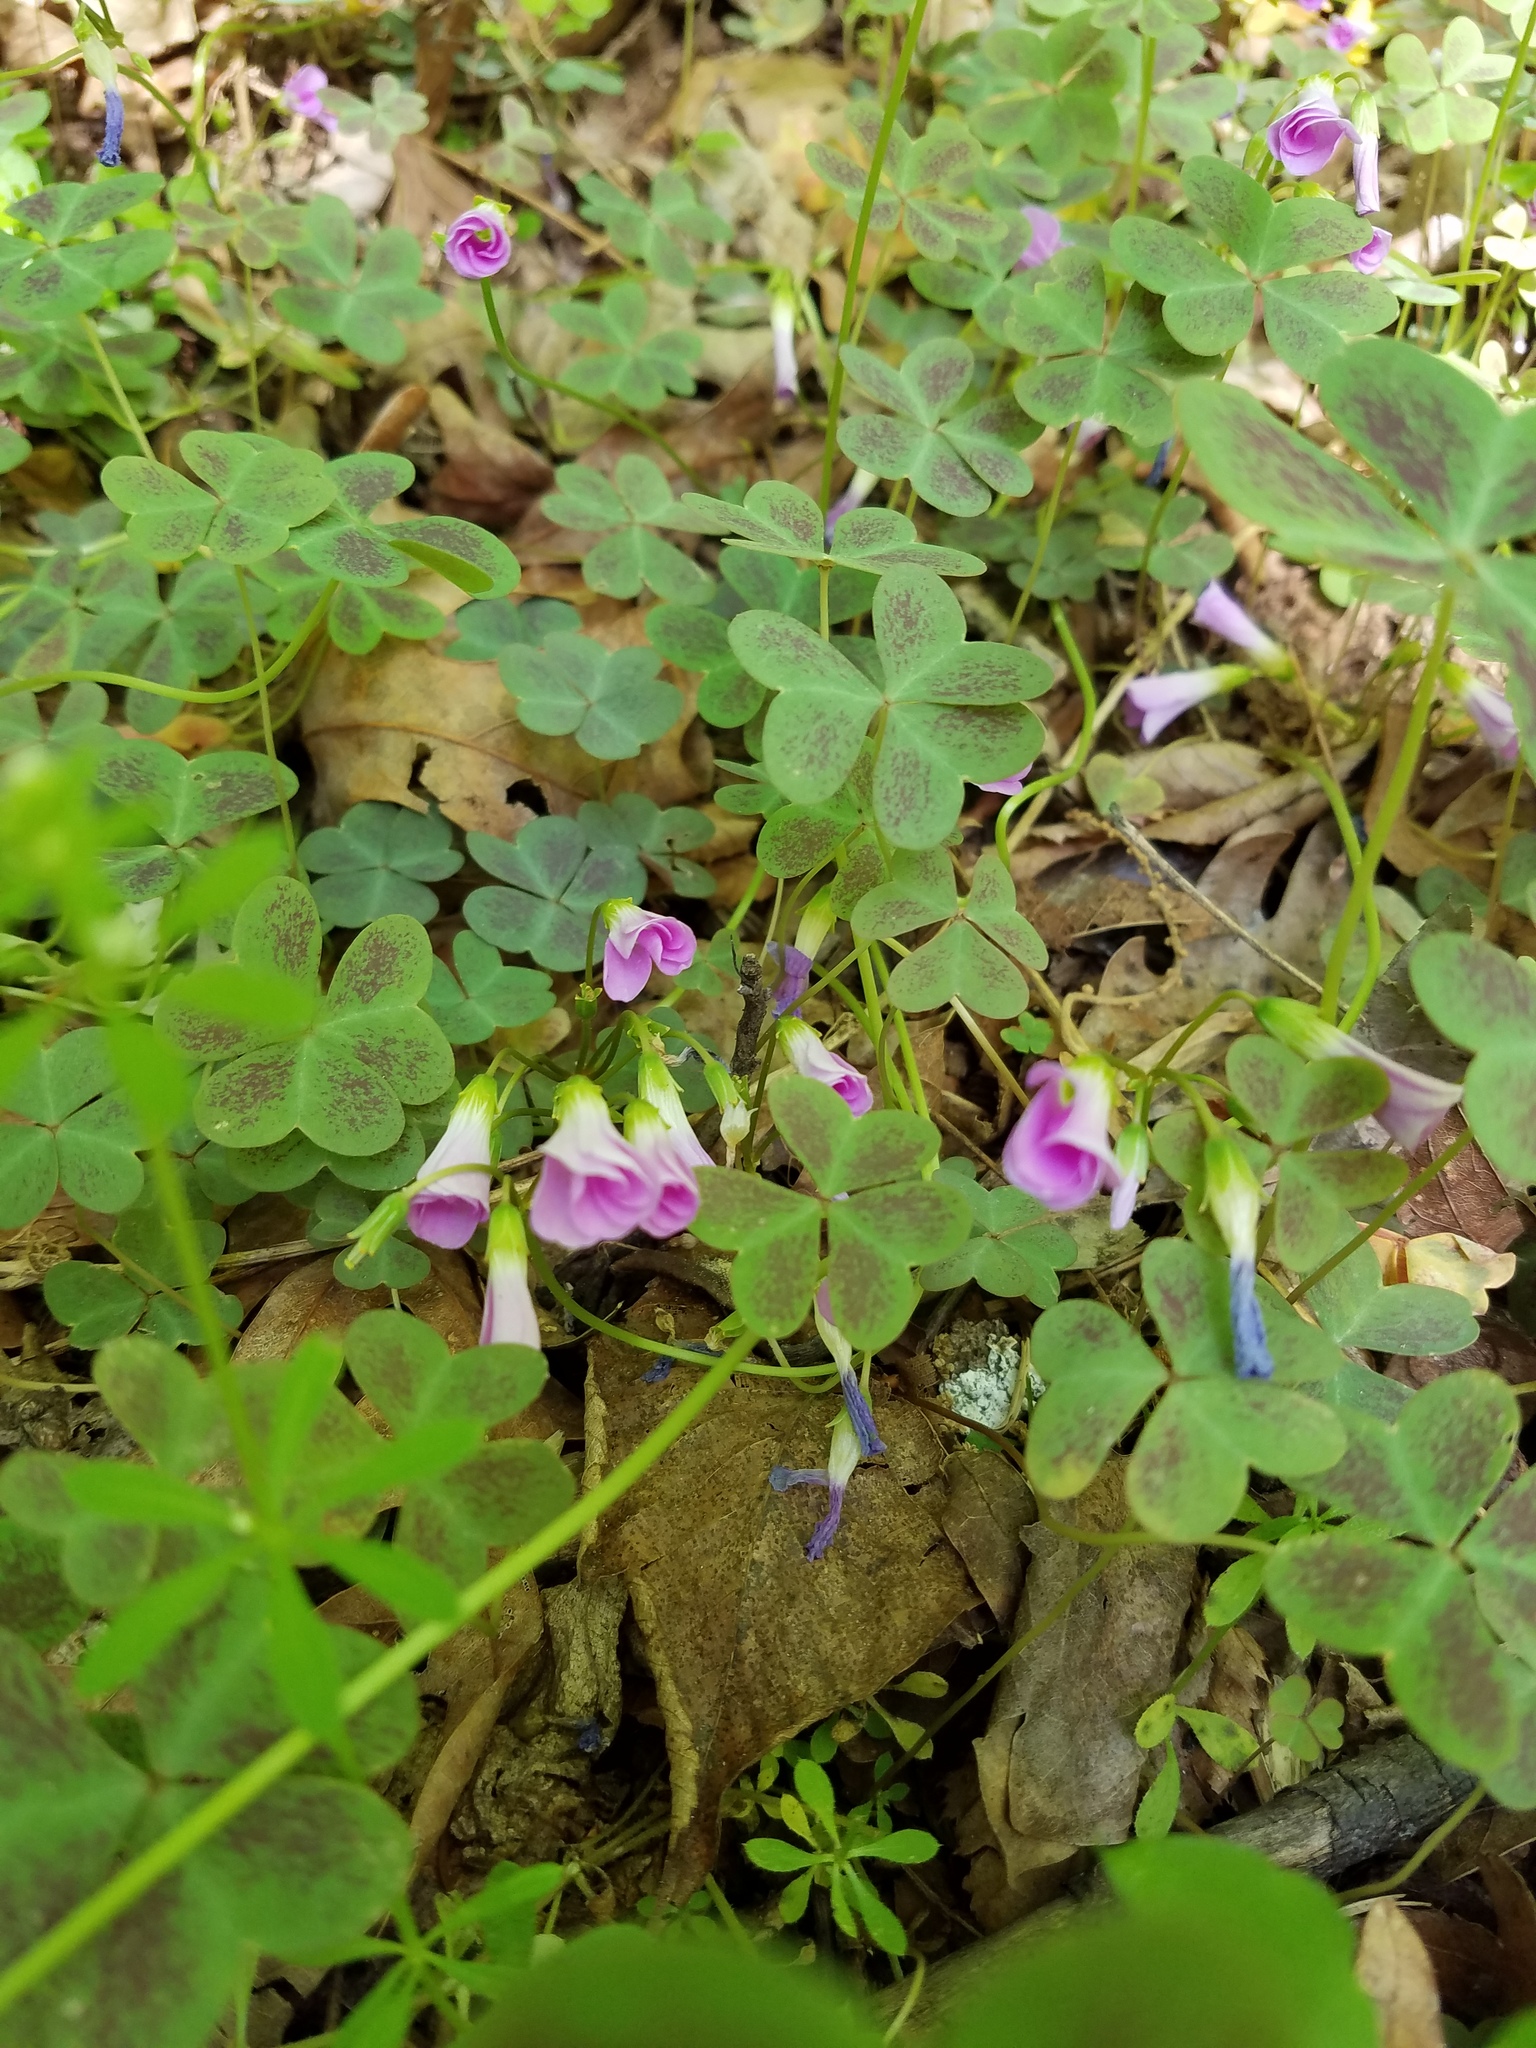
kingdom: Plantae
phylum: Tracheophyta
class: Magnoliopsida
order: Oxalidales
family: Oxalidaceae
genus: Oxalis
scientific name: Oxalis violacea
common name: Violet wood-sorrel
